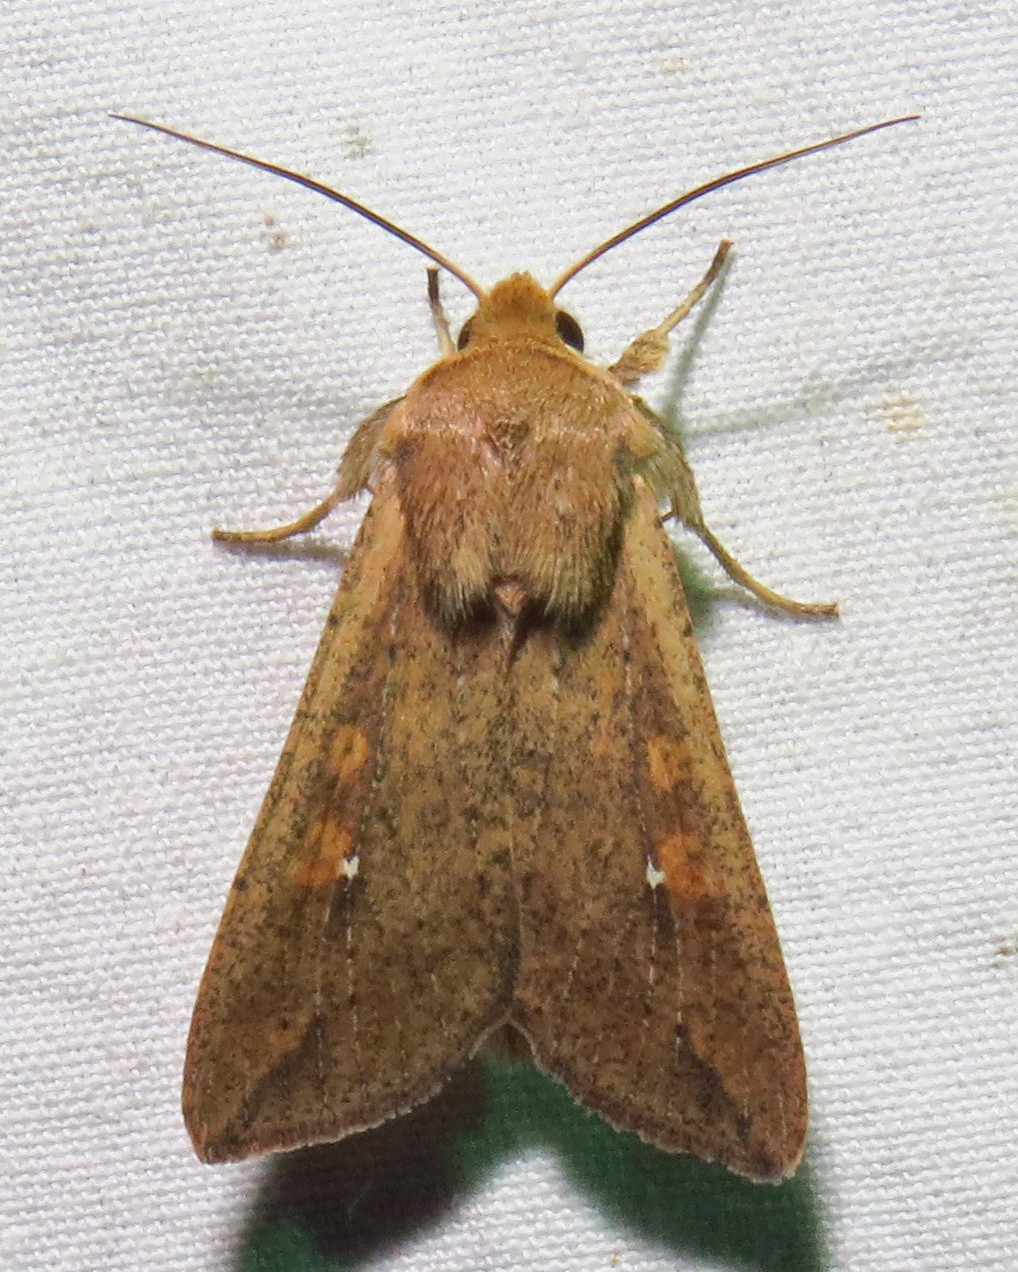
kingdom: Animalia
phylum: Arthropoda
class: Insecta
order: Lepidoptera
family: Noctuidae
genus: Mythimna
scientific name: Mythimna unipuncta
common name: White-speck
